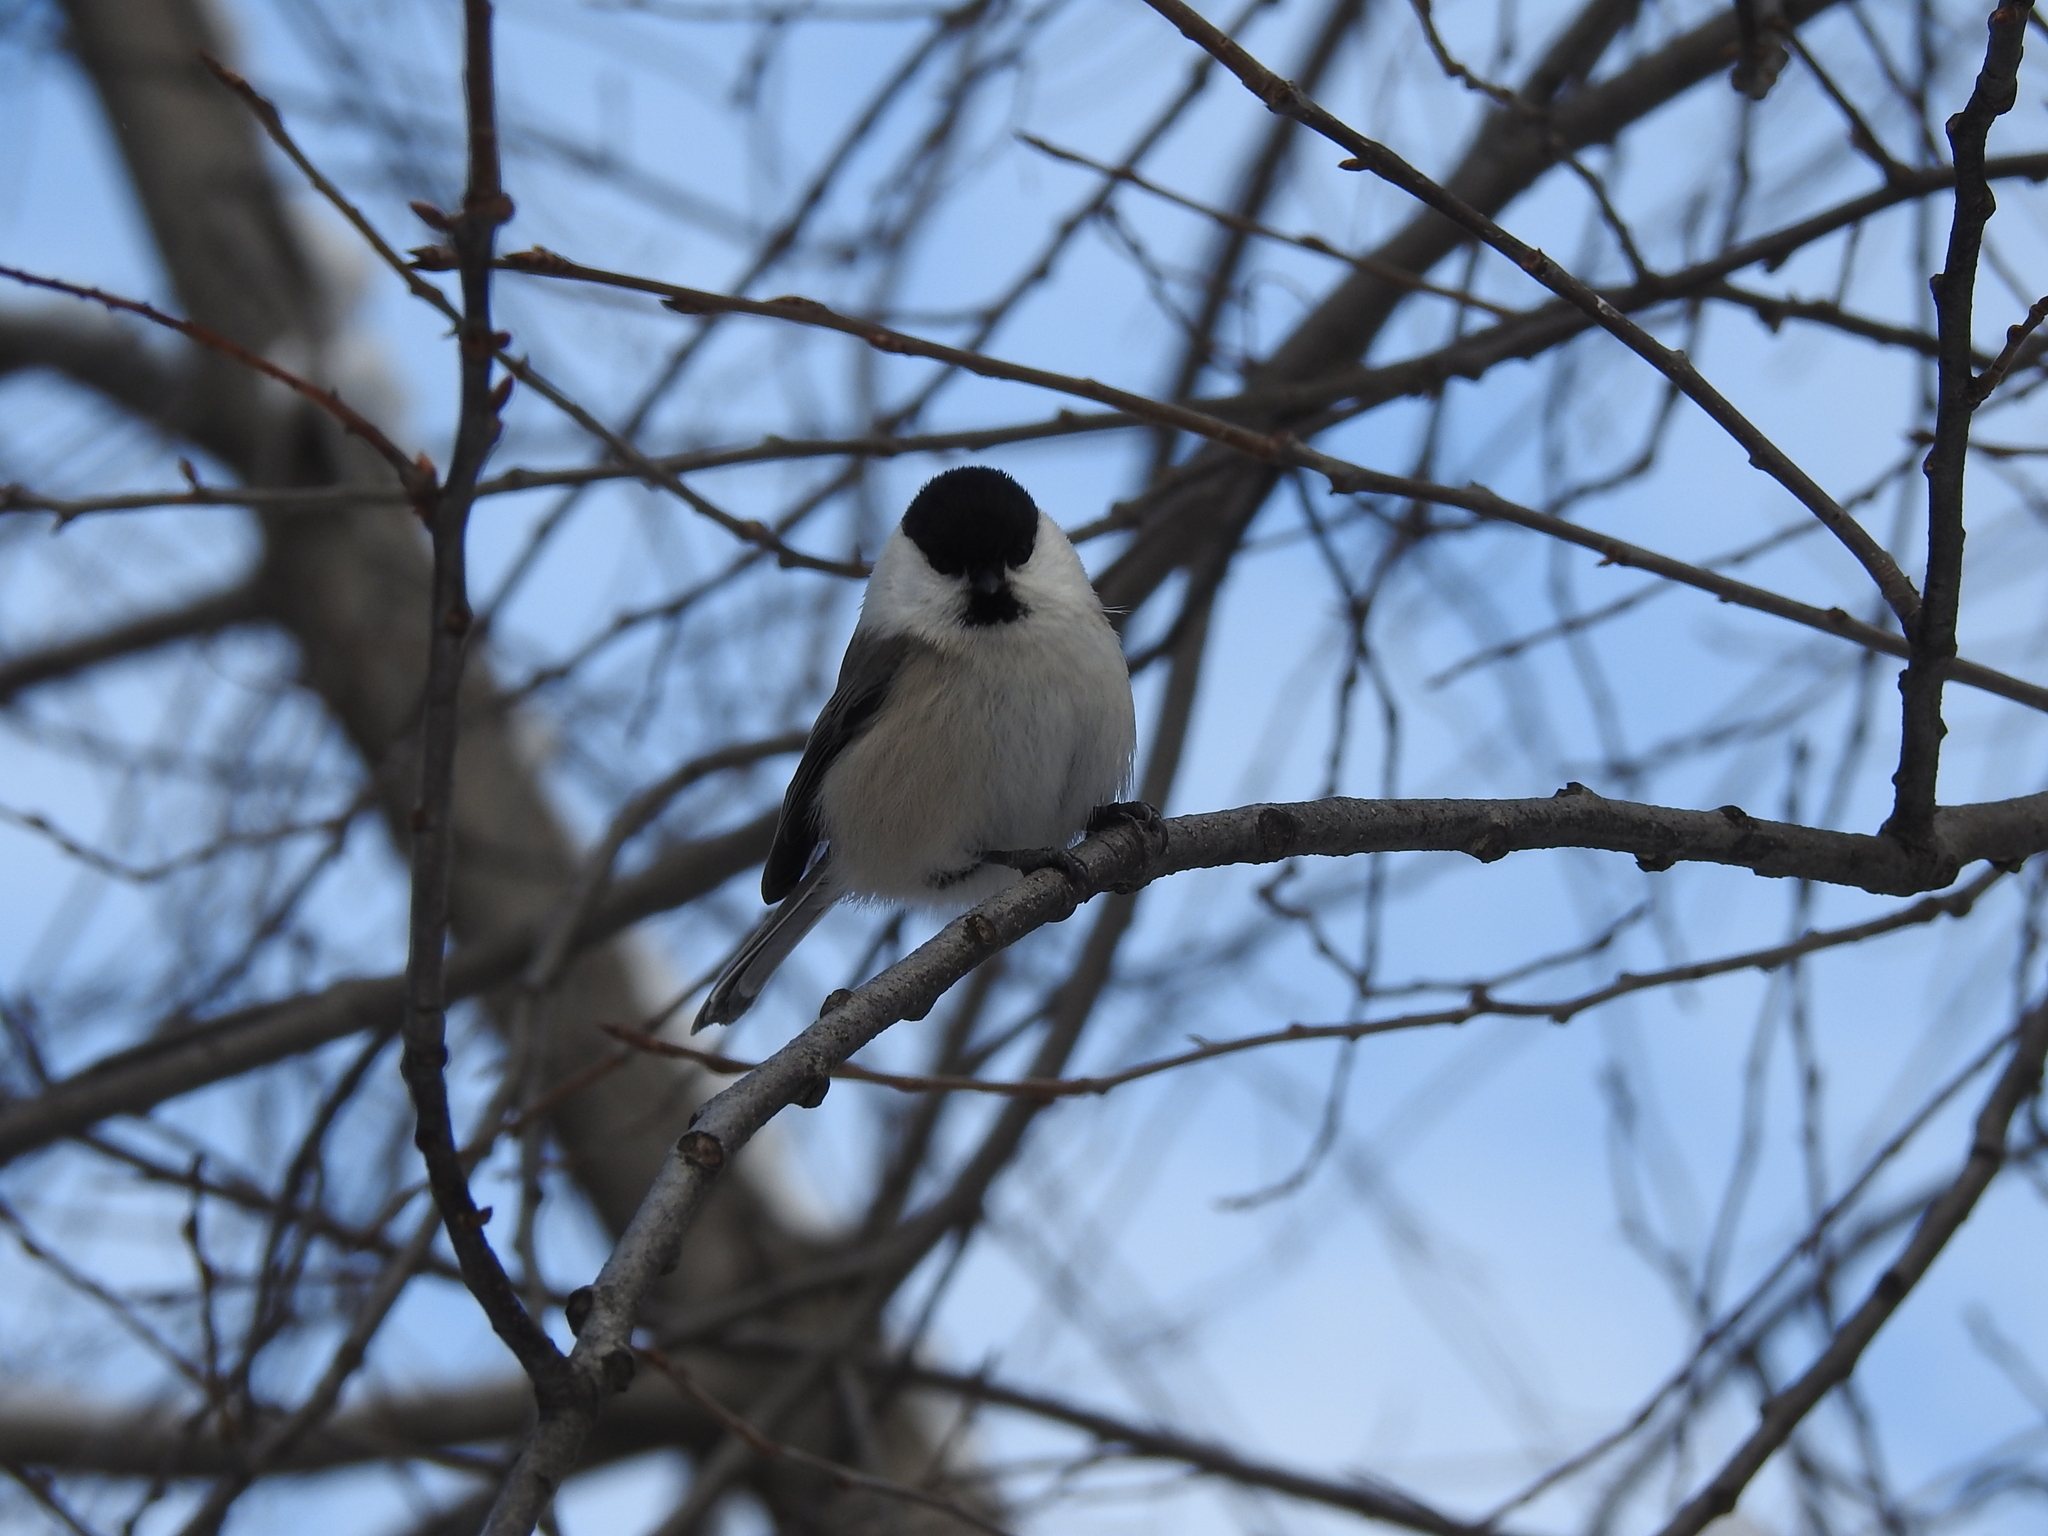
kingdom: Animalia
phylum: Chordata
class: Aves
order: Passeriformes
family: Paridae
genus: Poecile
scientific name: Poecile montanus
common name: Willow tit
